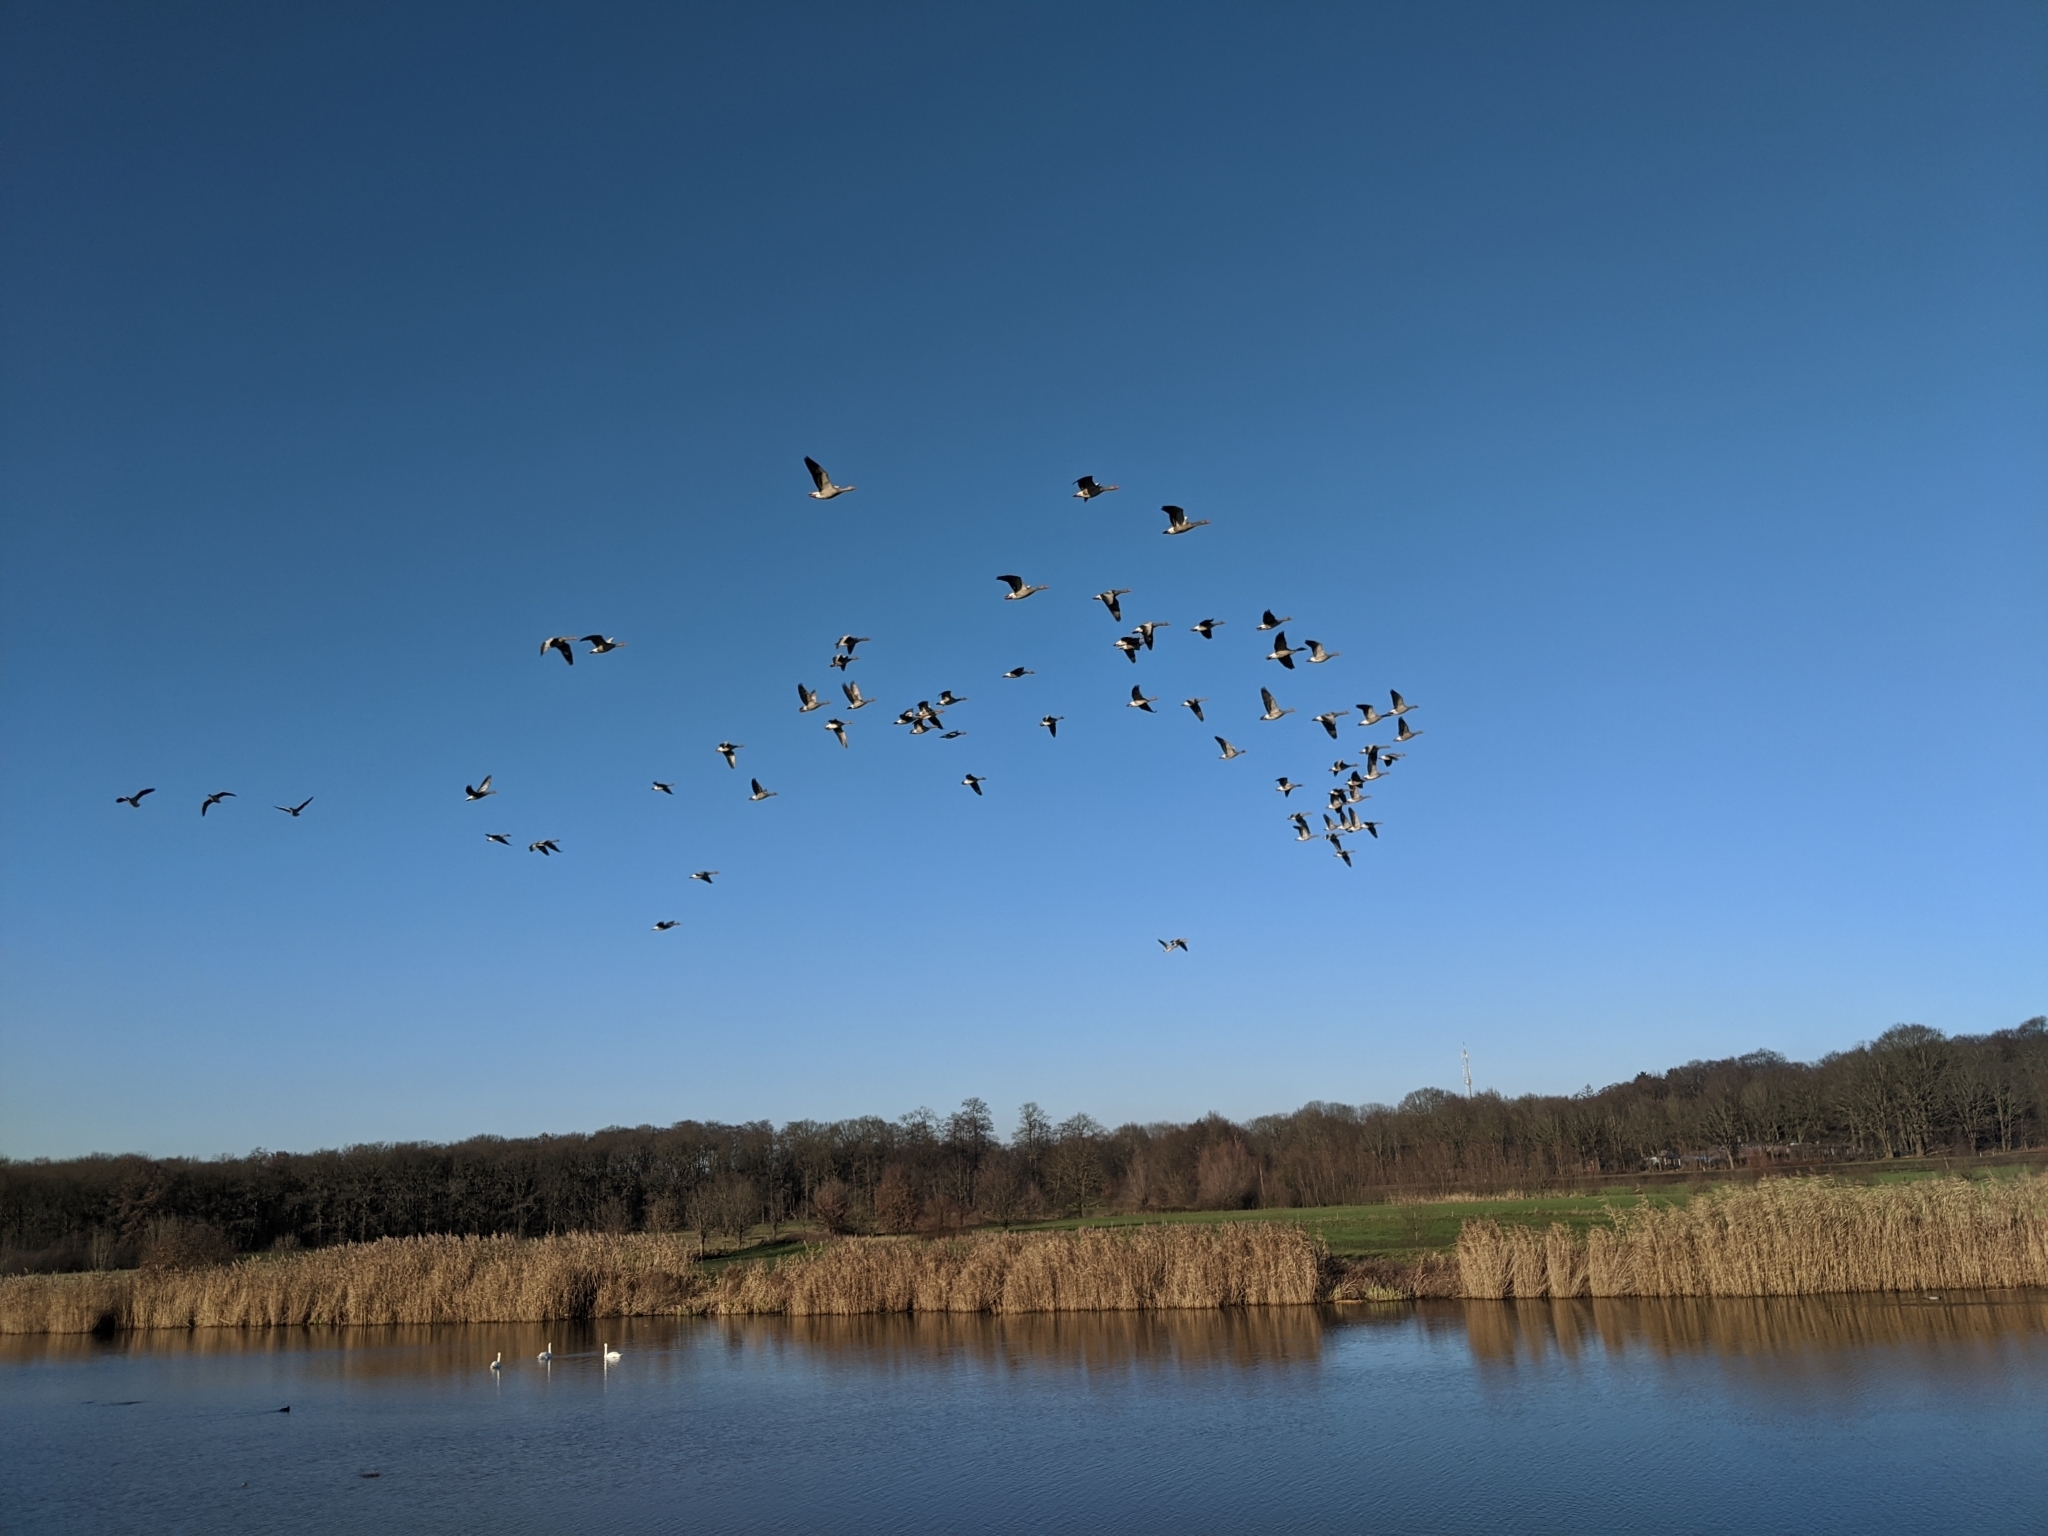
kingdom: Animalia
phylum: Chordata
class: Aves
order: Anseriformes
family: Anatidae
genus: Anser
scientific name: Anser anser
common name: Greylag goose
